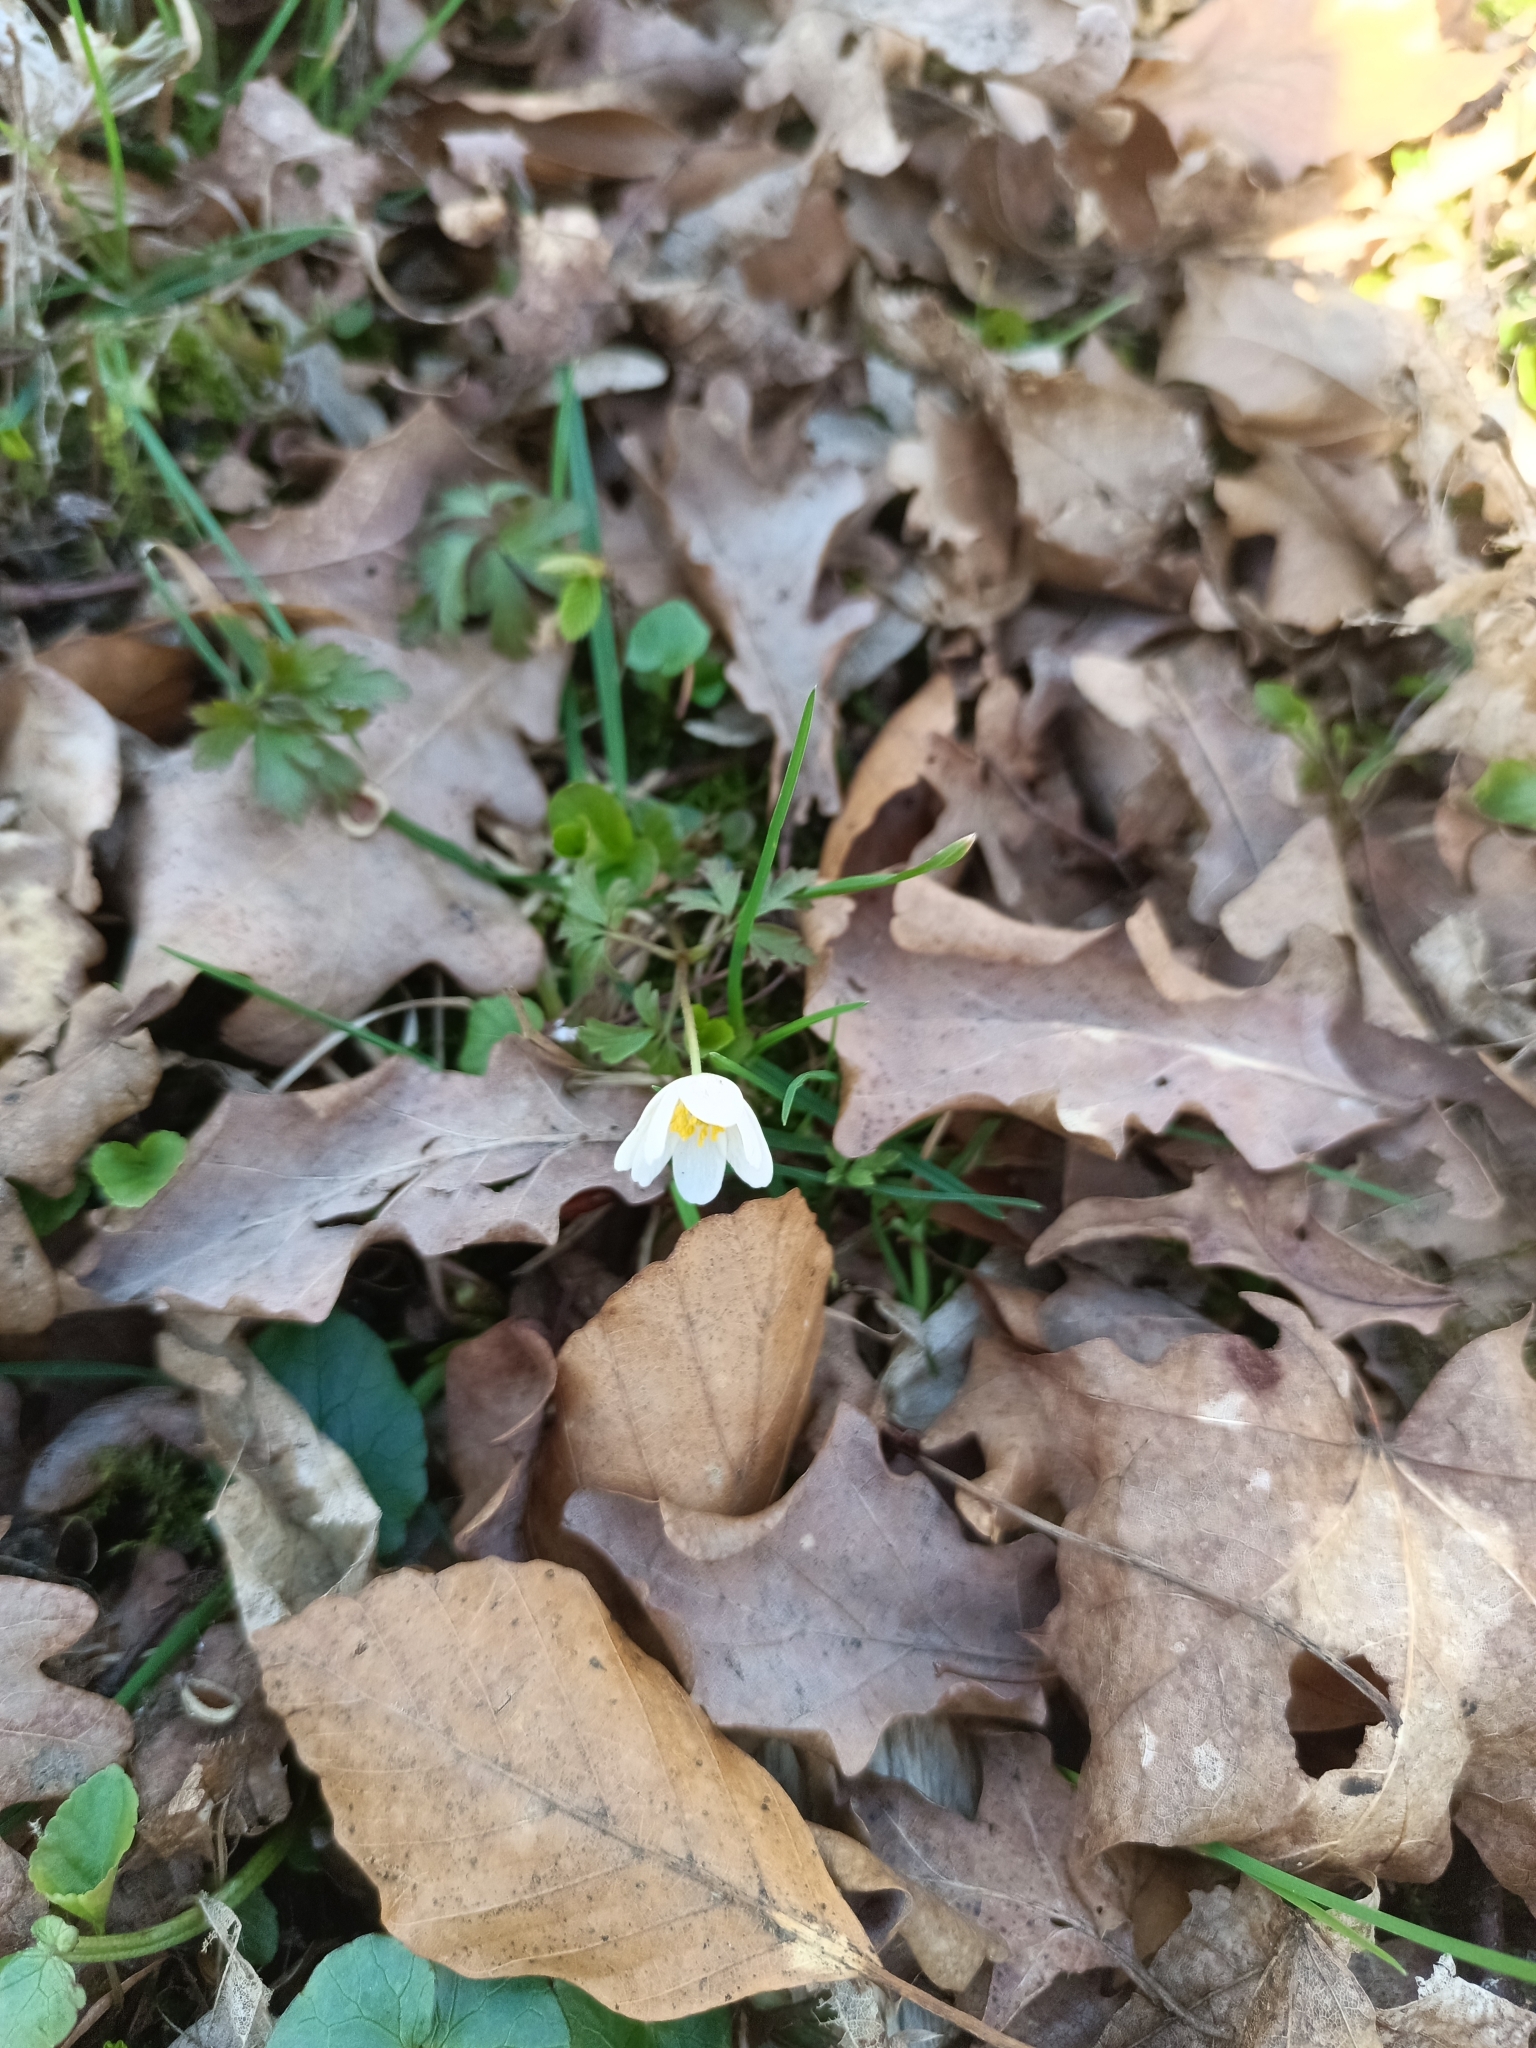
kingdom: Plantae
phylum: Tracheophyta
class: Magnoliopsida
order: Ranunculales
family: Ranunculaceae
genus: Anemone
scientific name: Anemone nemorosa
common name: Wood anemone
